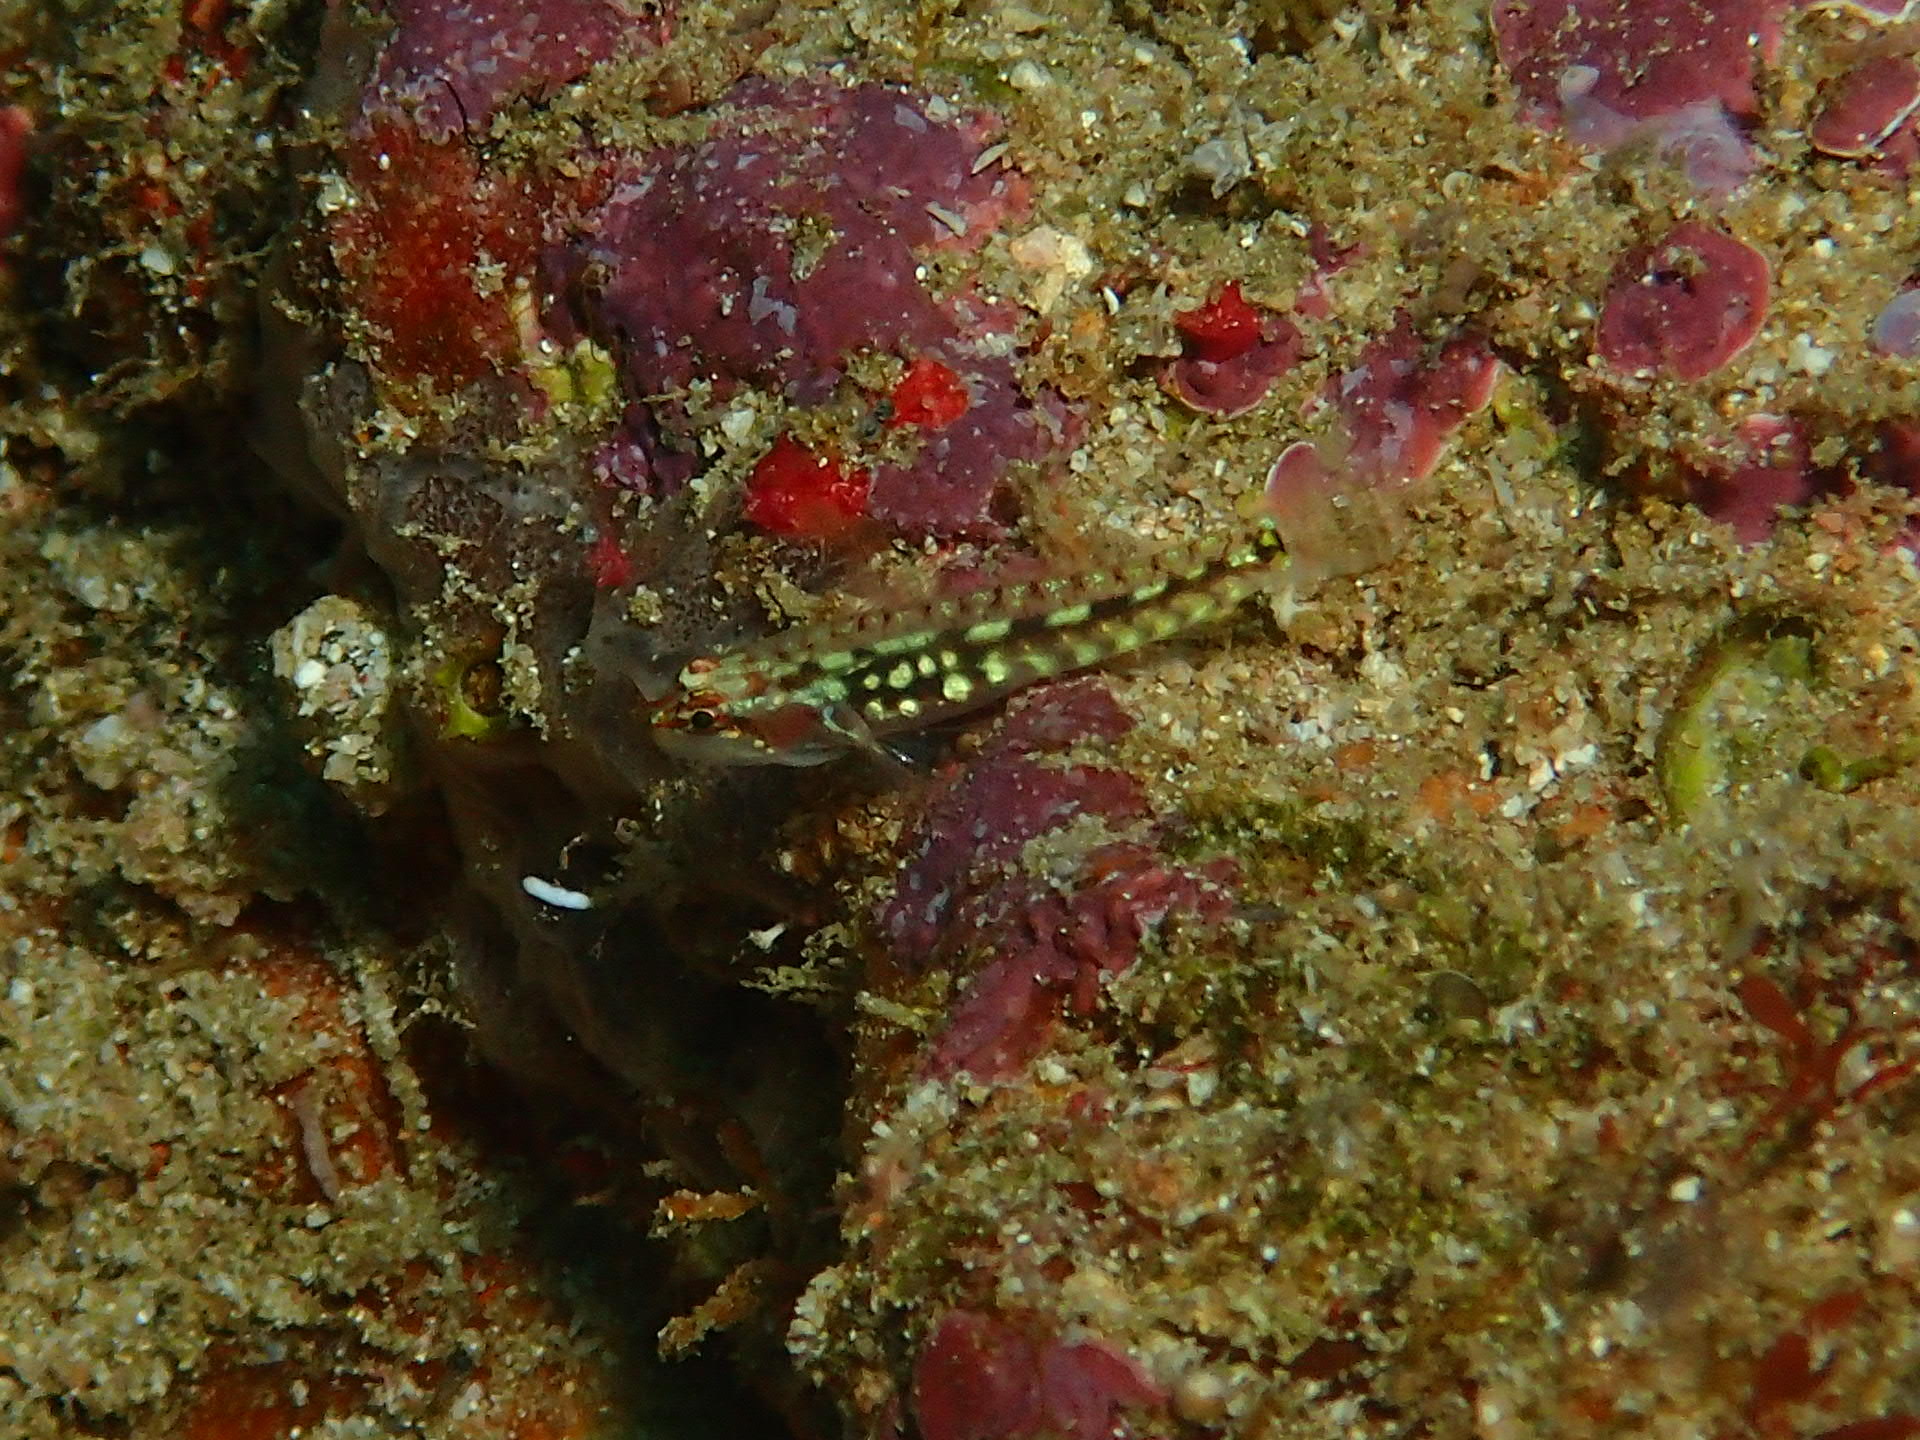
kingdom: Animalia
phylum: Chordata
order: Perciformes
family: Gobiidae
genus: Eviota
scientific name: Eviota longirostris
